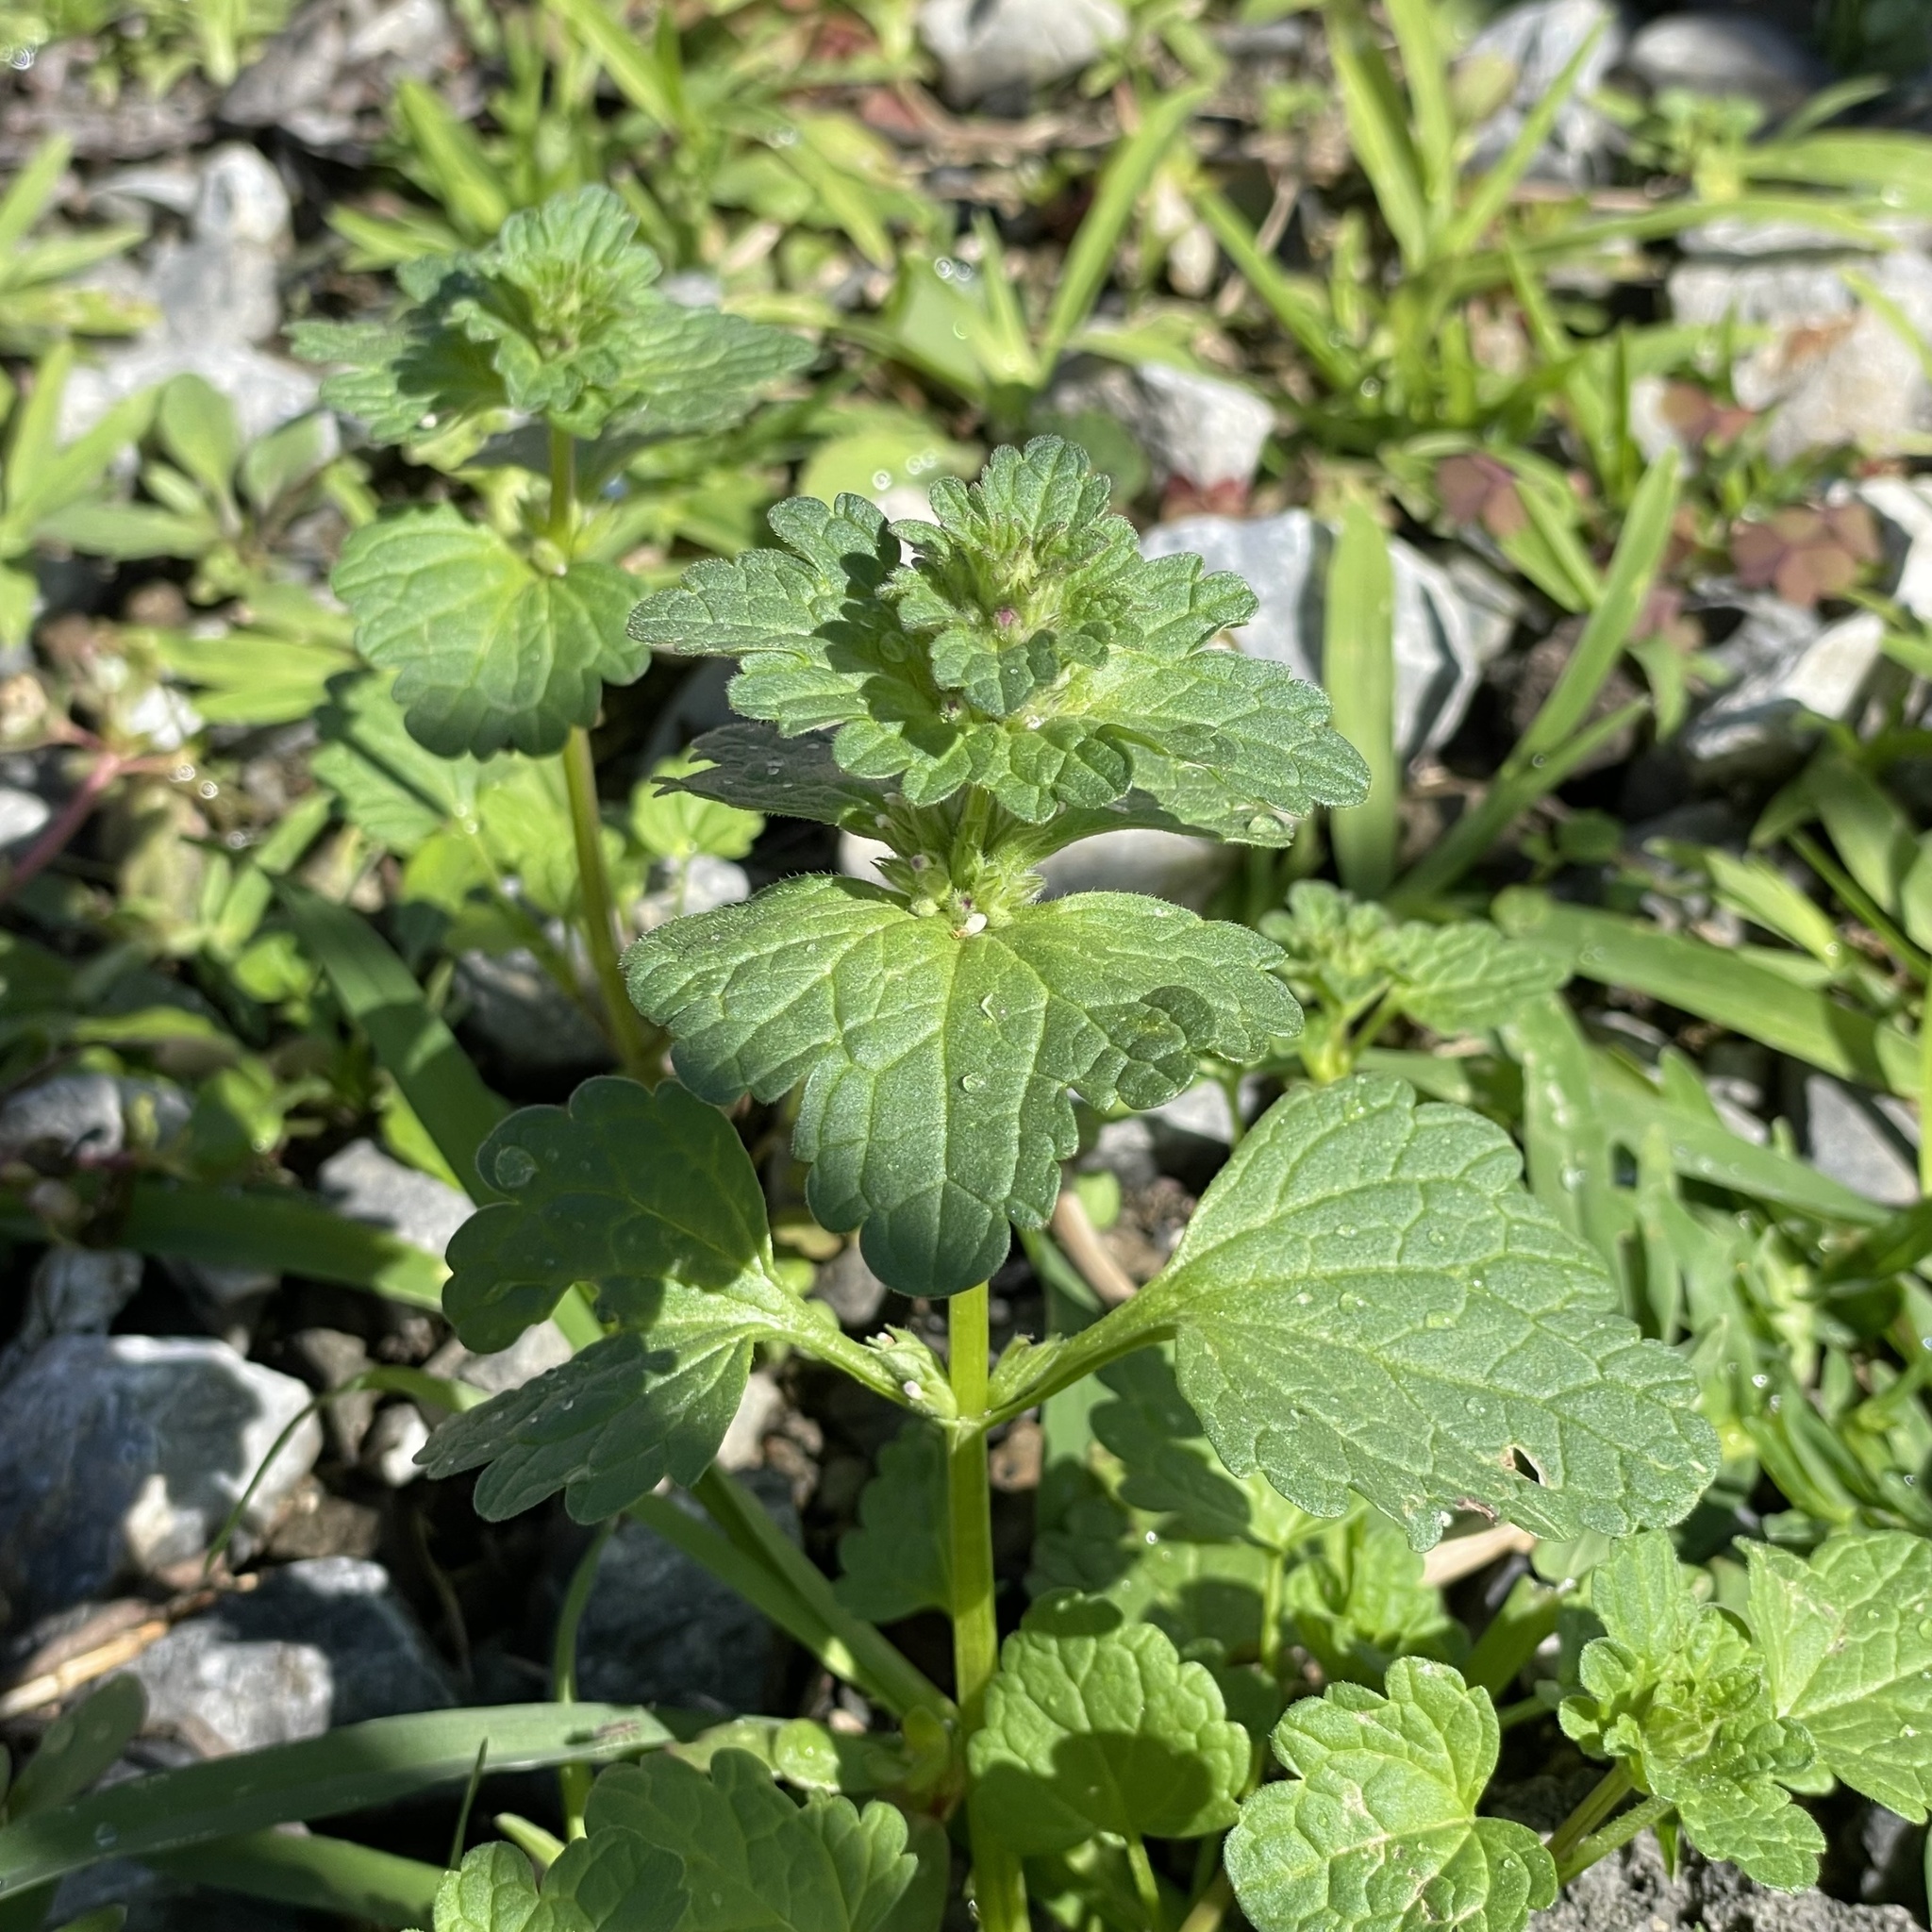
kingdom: Plantae
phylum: Tracheophyta
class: Magnoliopsida
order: Lamiales
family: Lamiaceae
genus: Lamium
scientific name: Lamium amplexicaule
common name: Henbit dead-nettle
